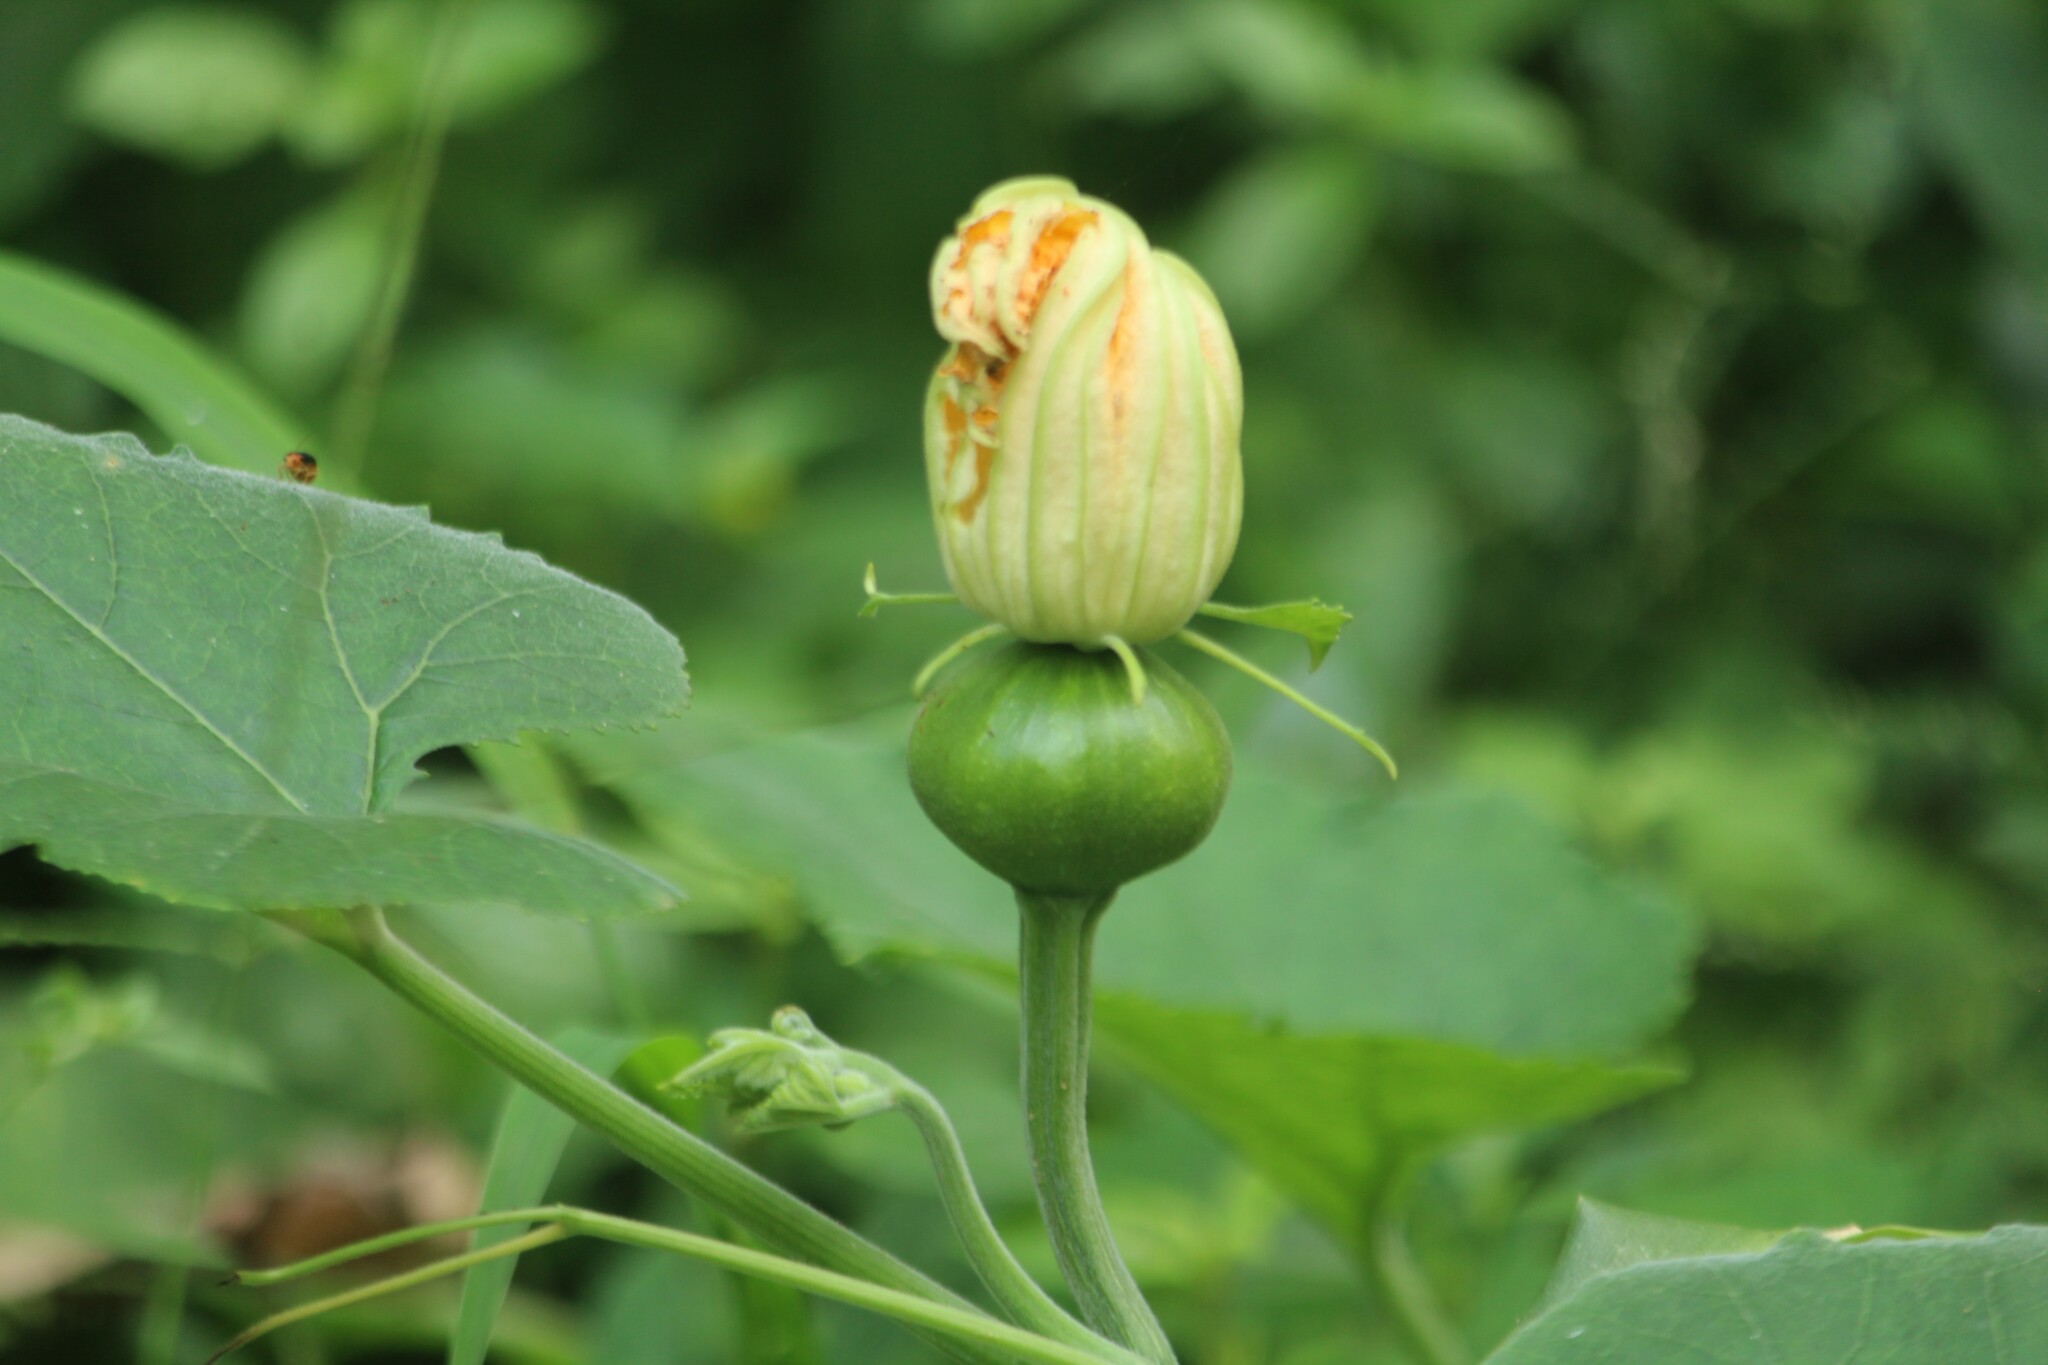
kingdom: Plantae
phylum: Tracheophyta
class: Magnoliopsida
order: Cucurbitales
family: Cucurbitaceae
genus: Cucurbita
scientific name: Cucurbita moschata
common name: Squash / pumpkin
